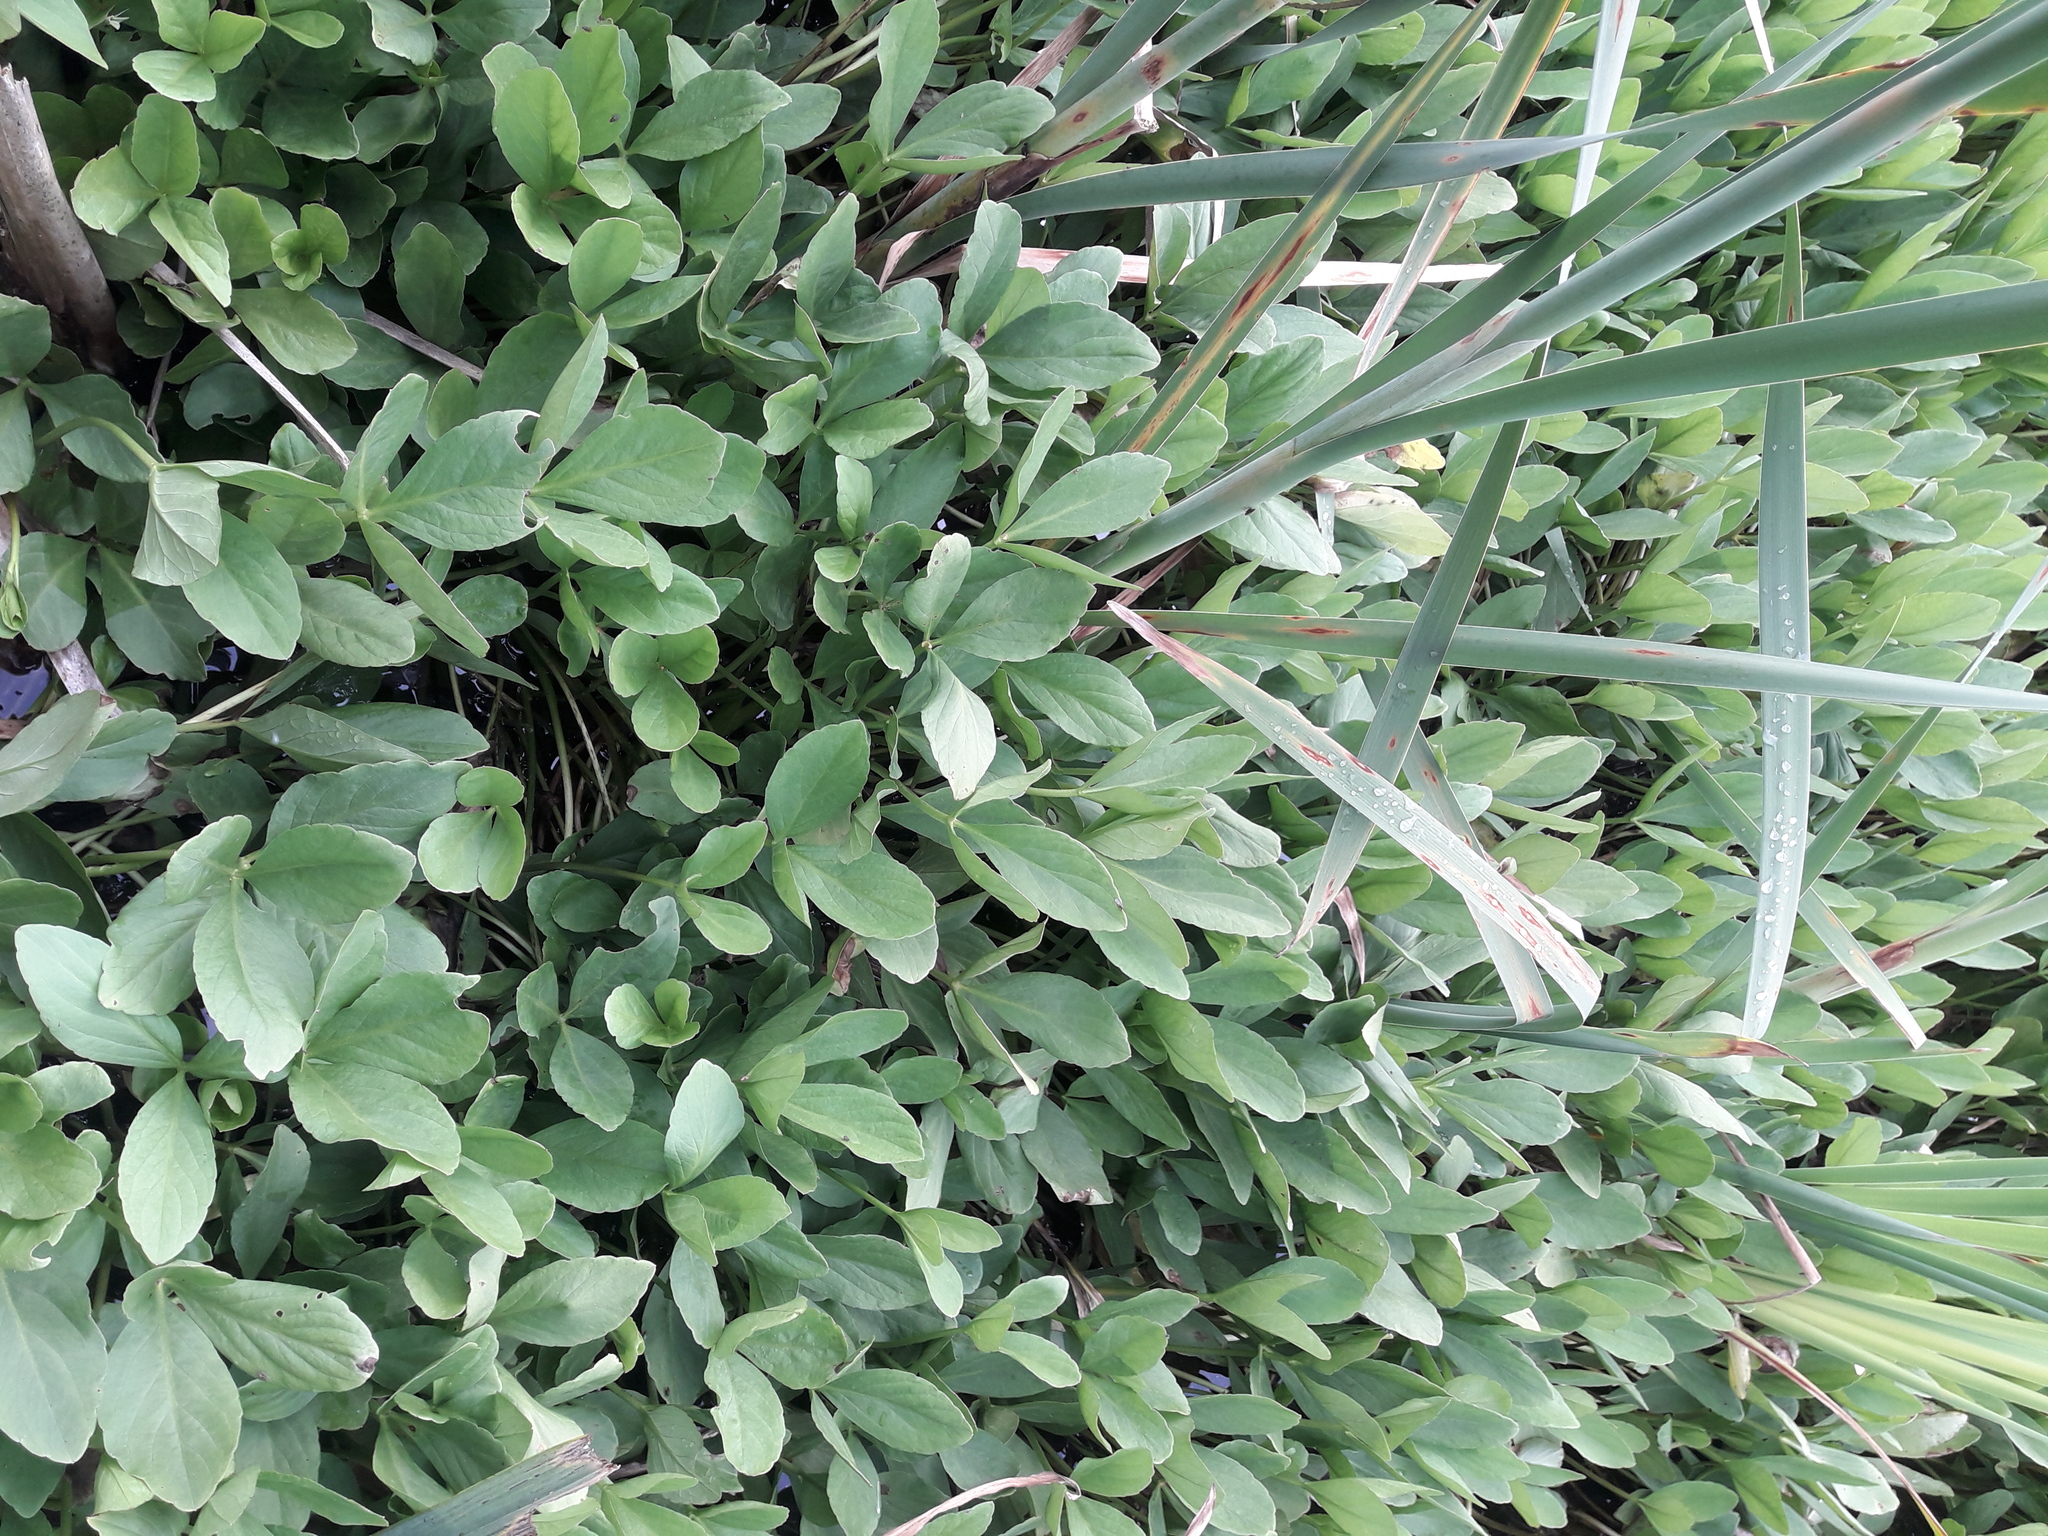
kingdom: Plantae
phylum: Tracheophyta
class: Liliopsida
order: Poales
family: Typhaceae
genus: Typha
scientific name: Typha latifolia
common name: Broadleaf cattail
